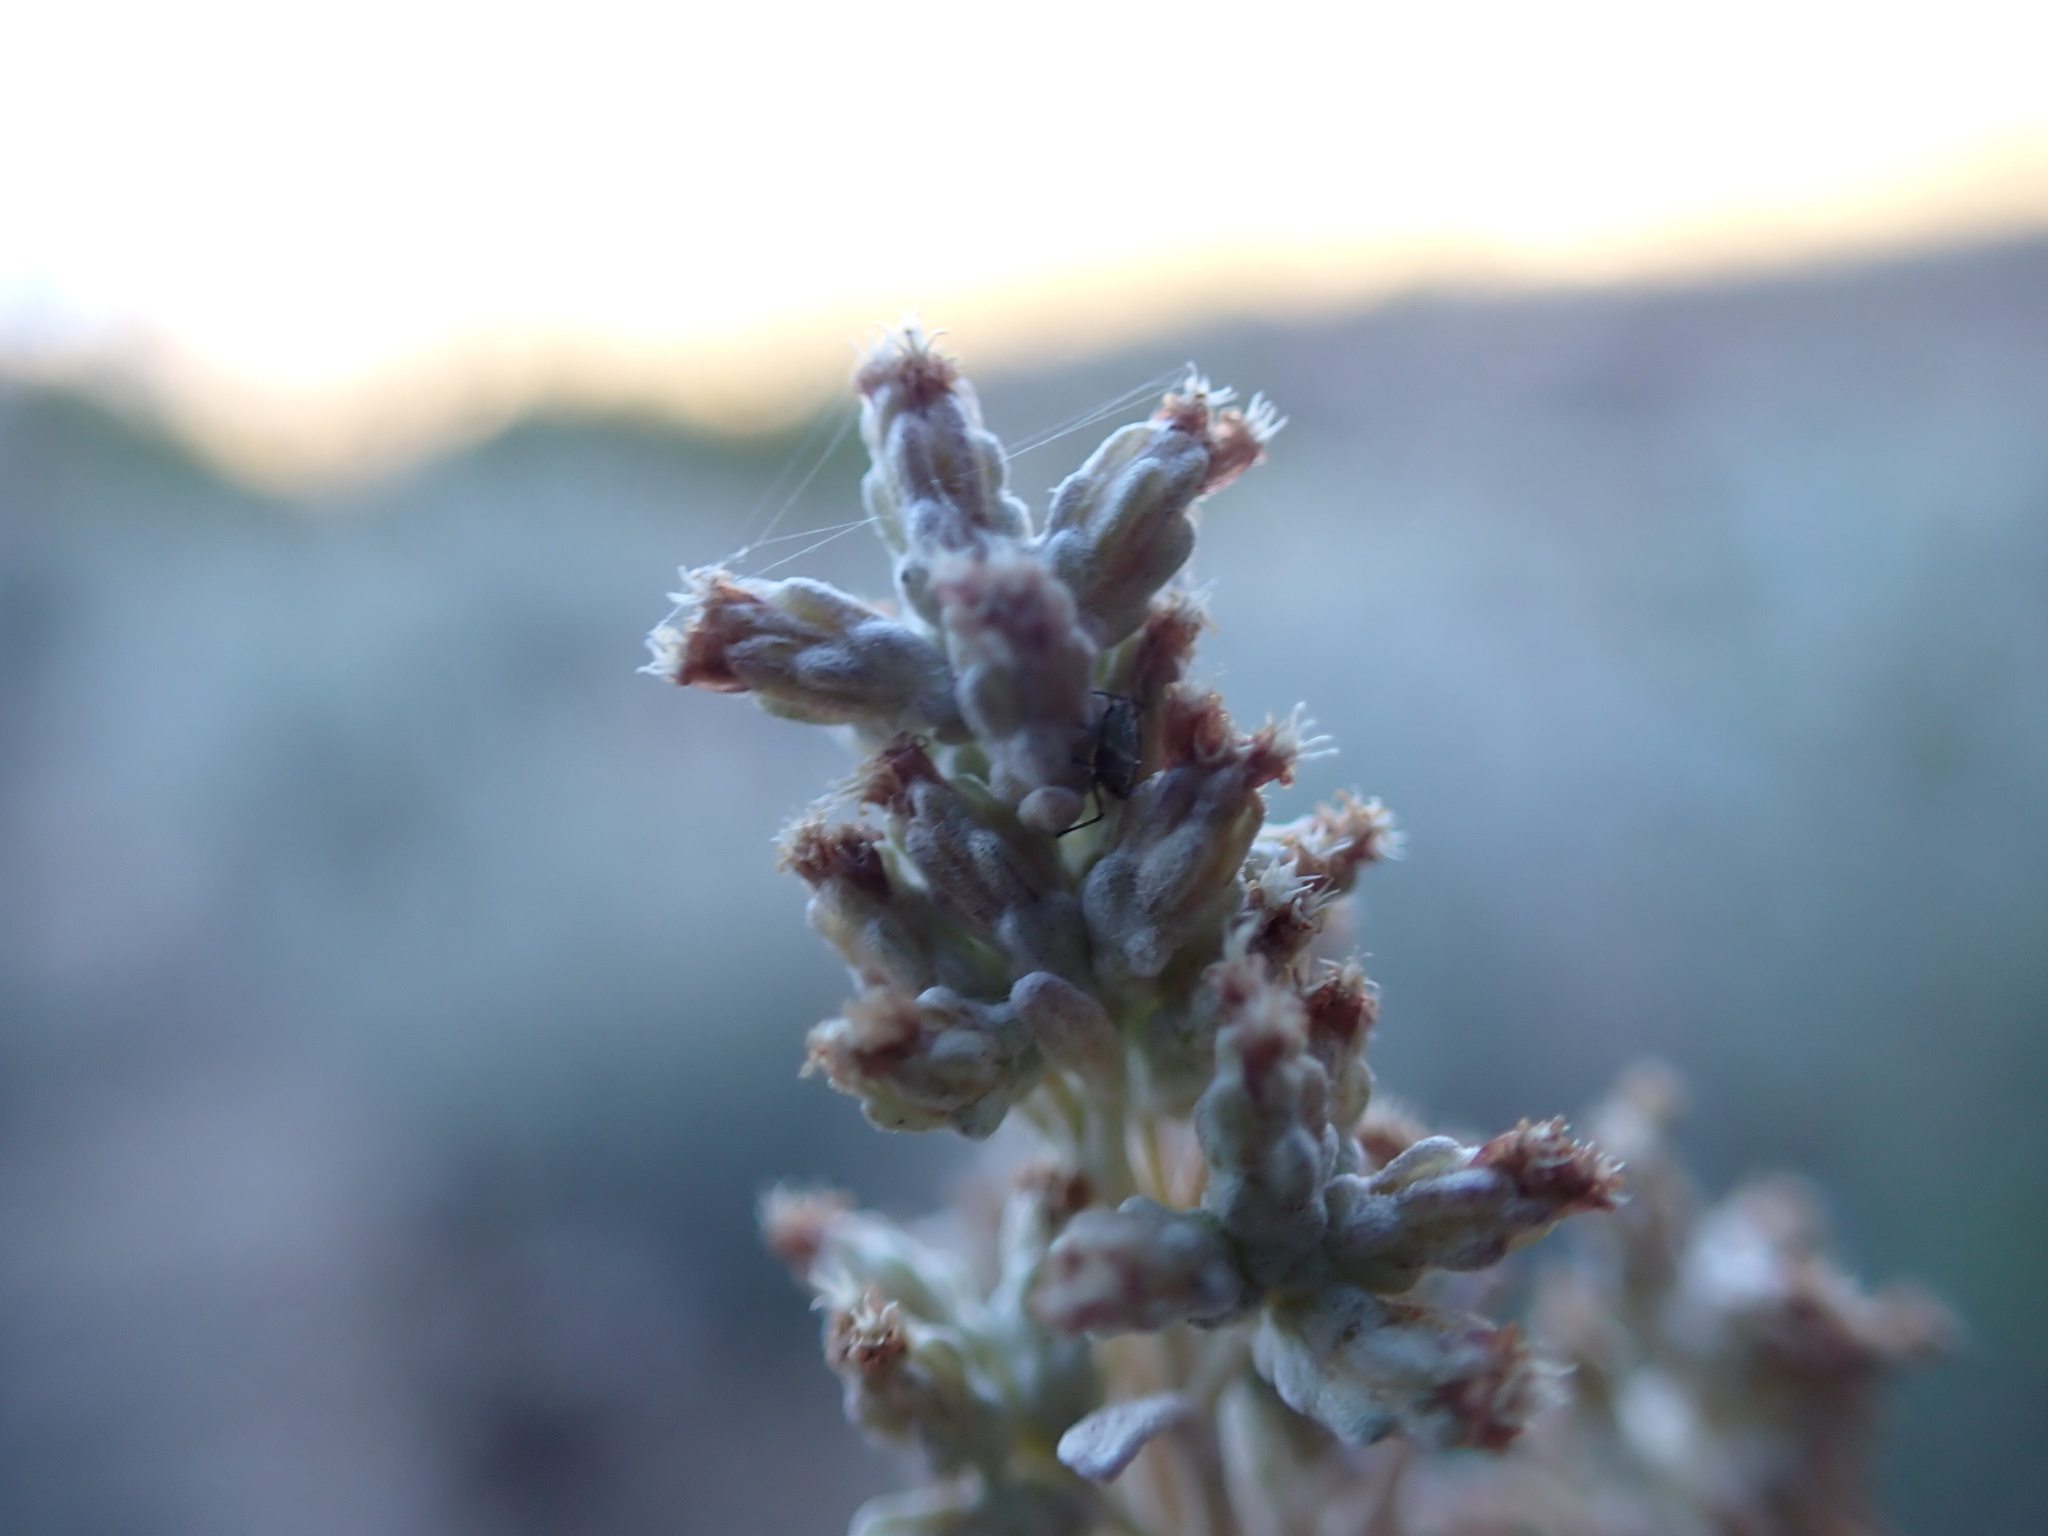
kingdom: Plantae
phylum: Tracheophyta
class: Magnoliopsida
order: Asterales
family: Asteraceae
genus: Artemisia
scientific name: Artemisia tridentata
